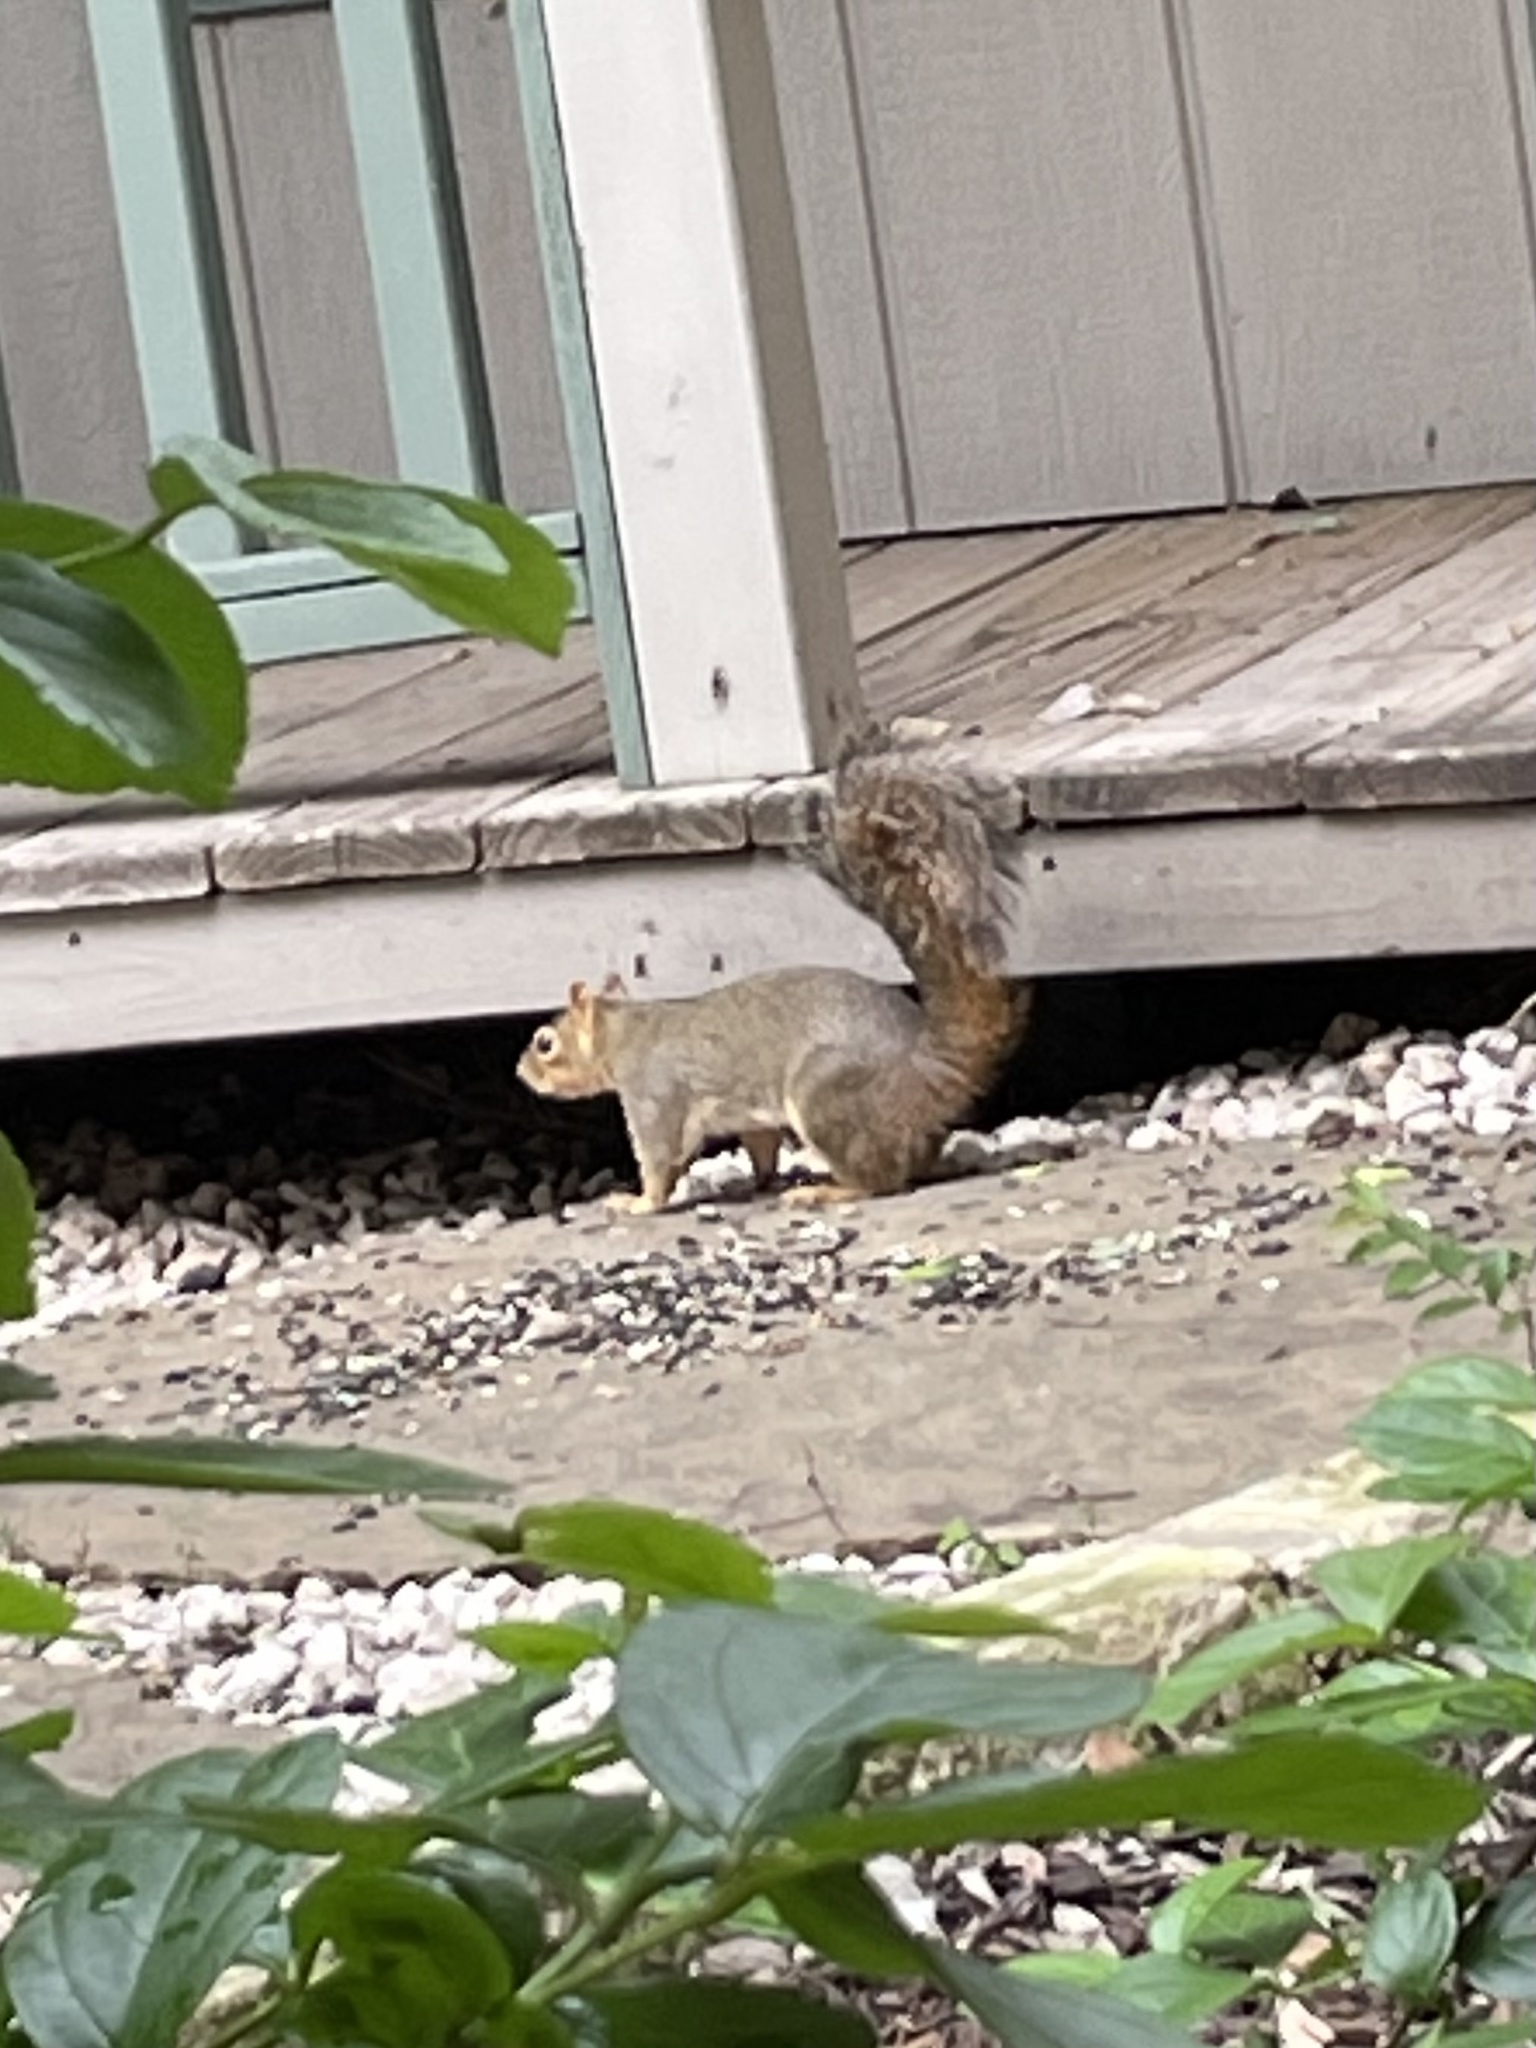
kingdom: Animalia
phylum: Chordata
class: Mammalia
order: Rodentia
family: Sciuridae
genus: Sciurus
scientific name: Sciurus niger
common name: Fox squirrel
